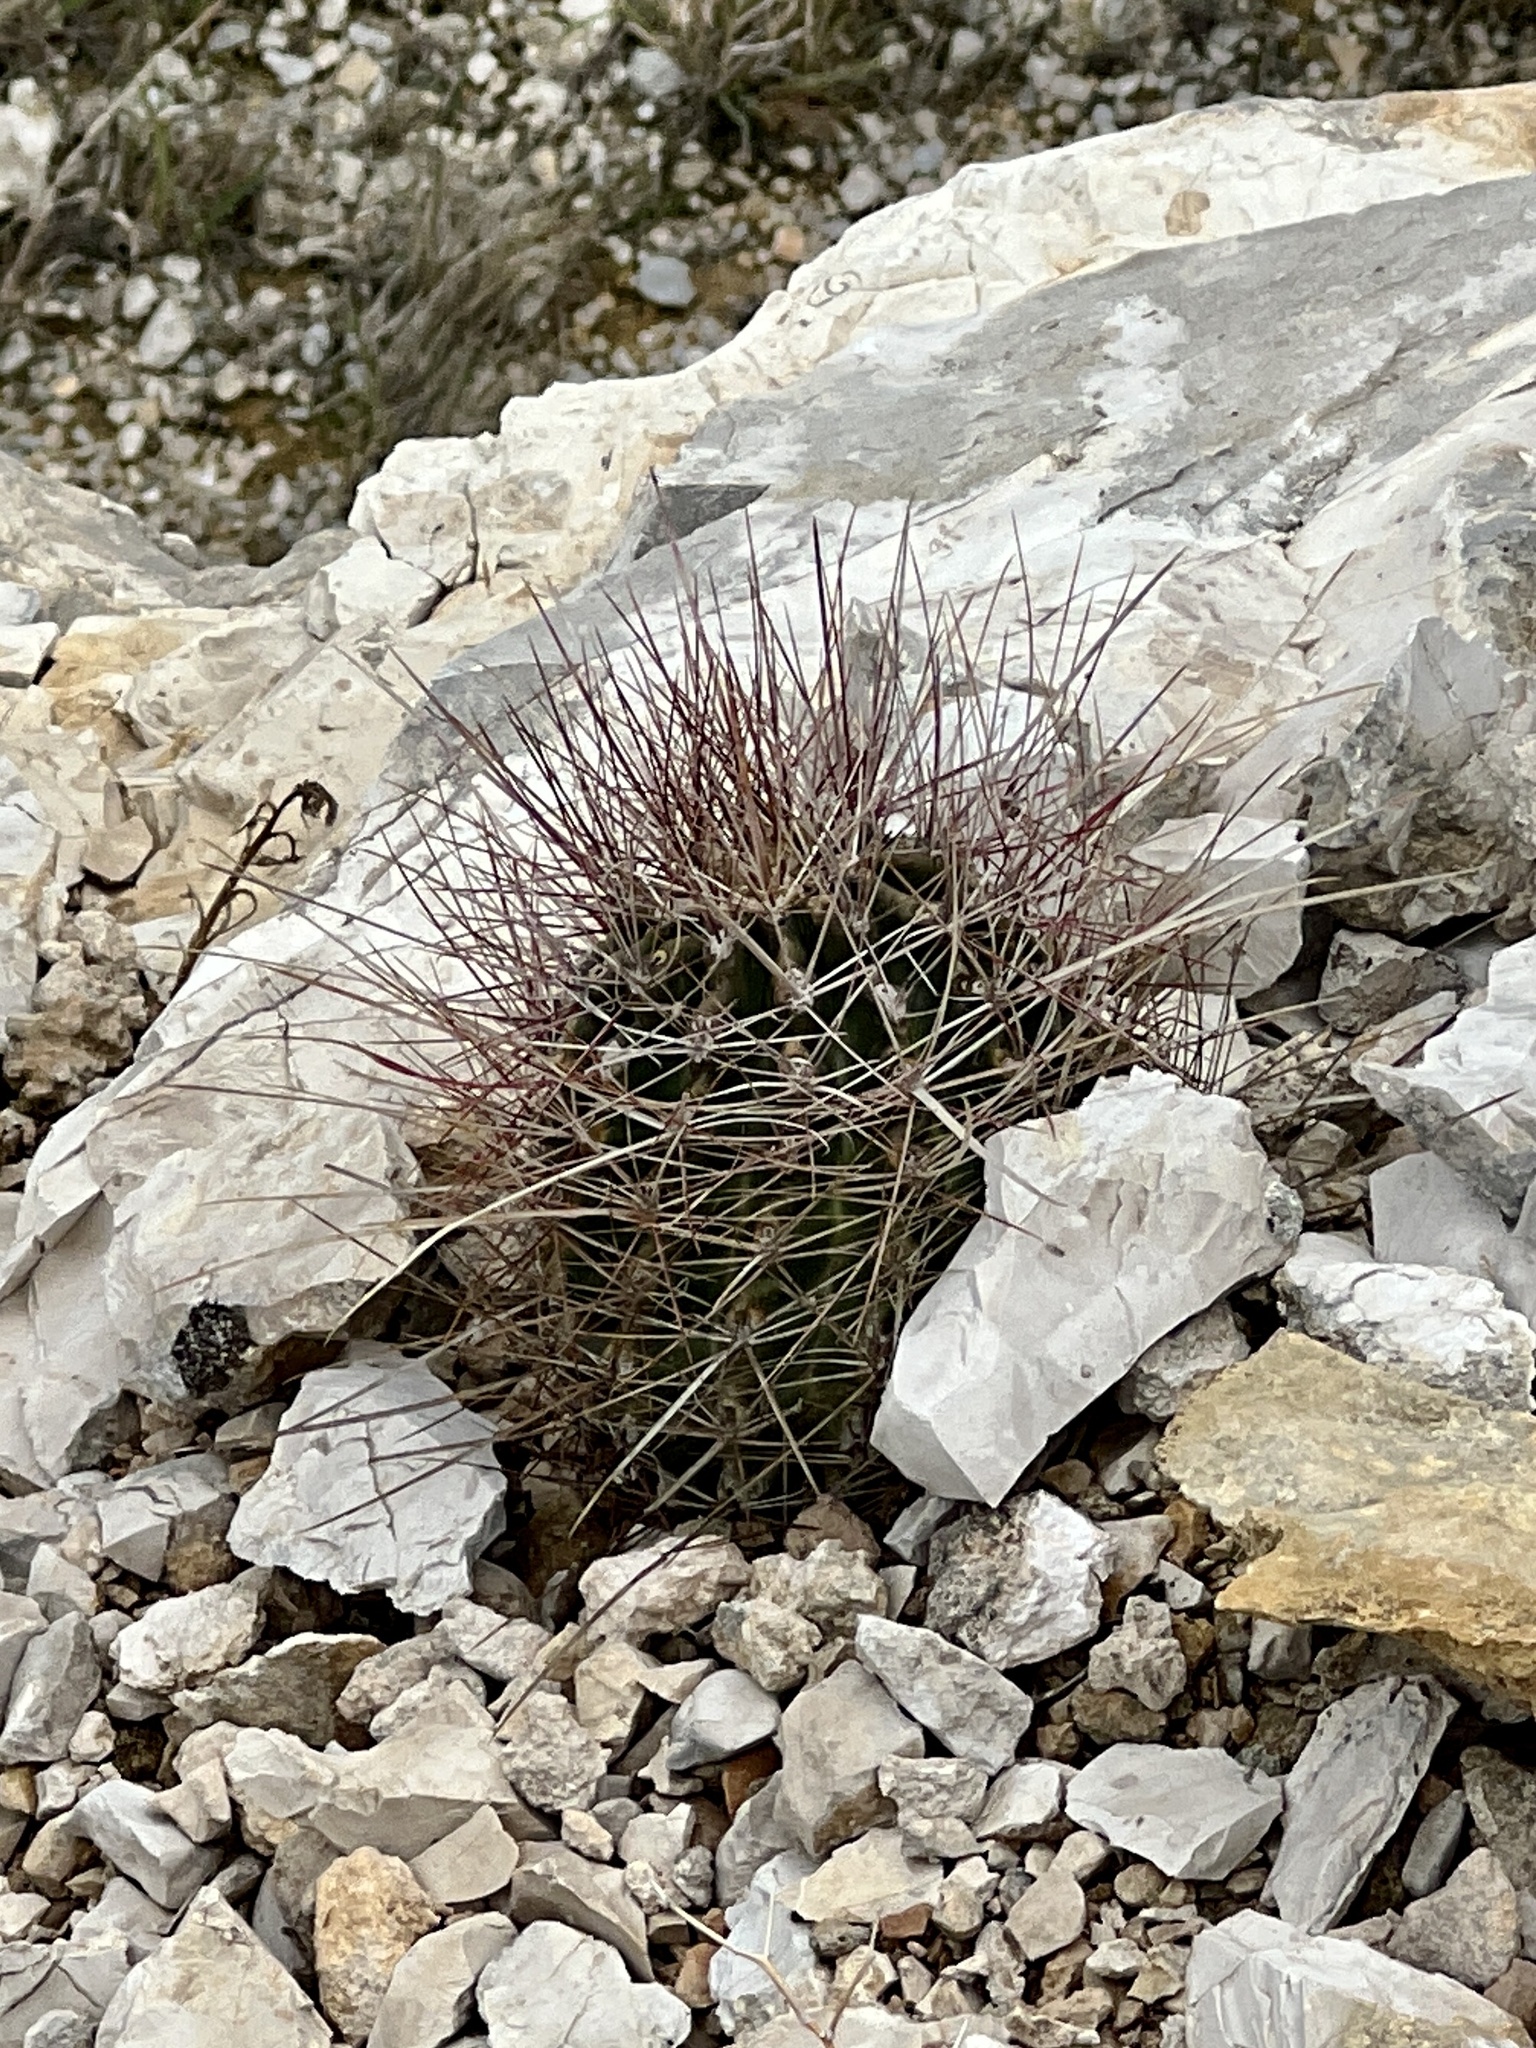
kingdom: Plantae
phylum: Tracheophyta
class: Magnoliopsida
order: Caryophyllales
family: Cactaceae
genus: Bisnaga
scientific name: Bisnaga hamatacantha
